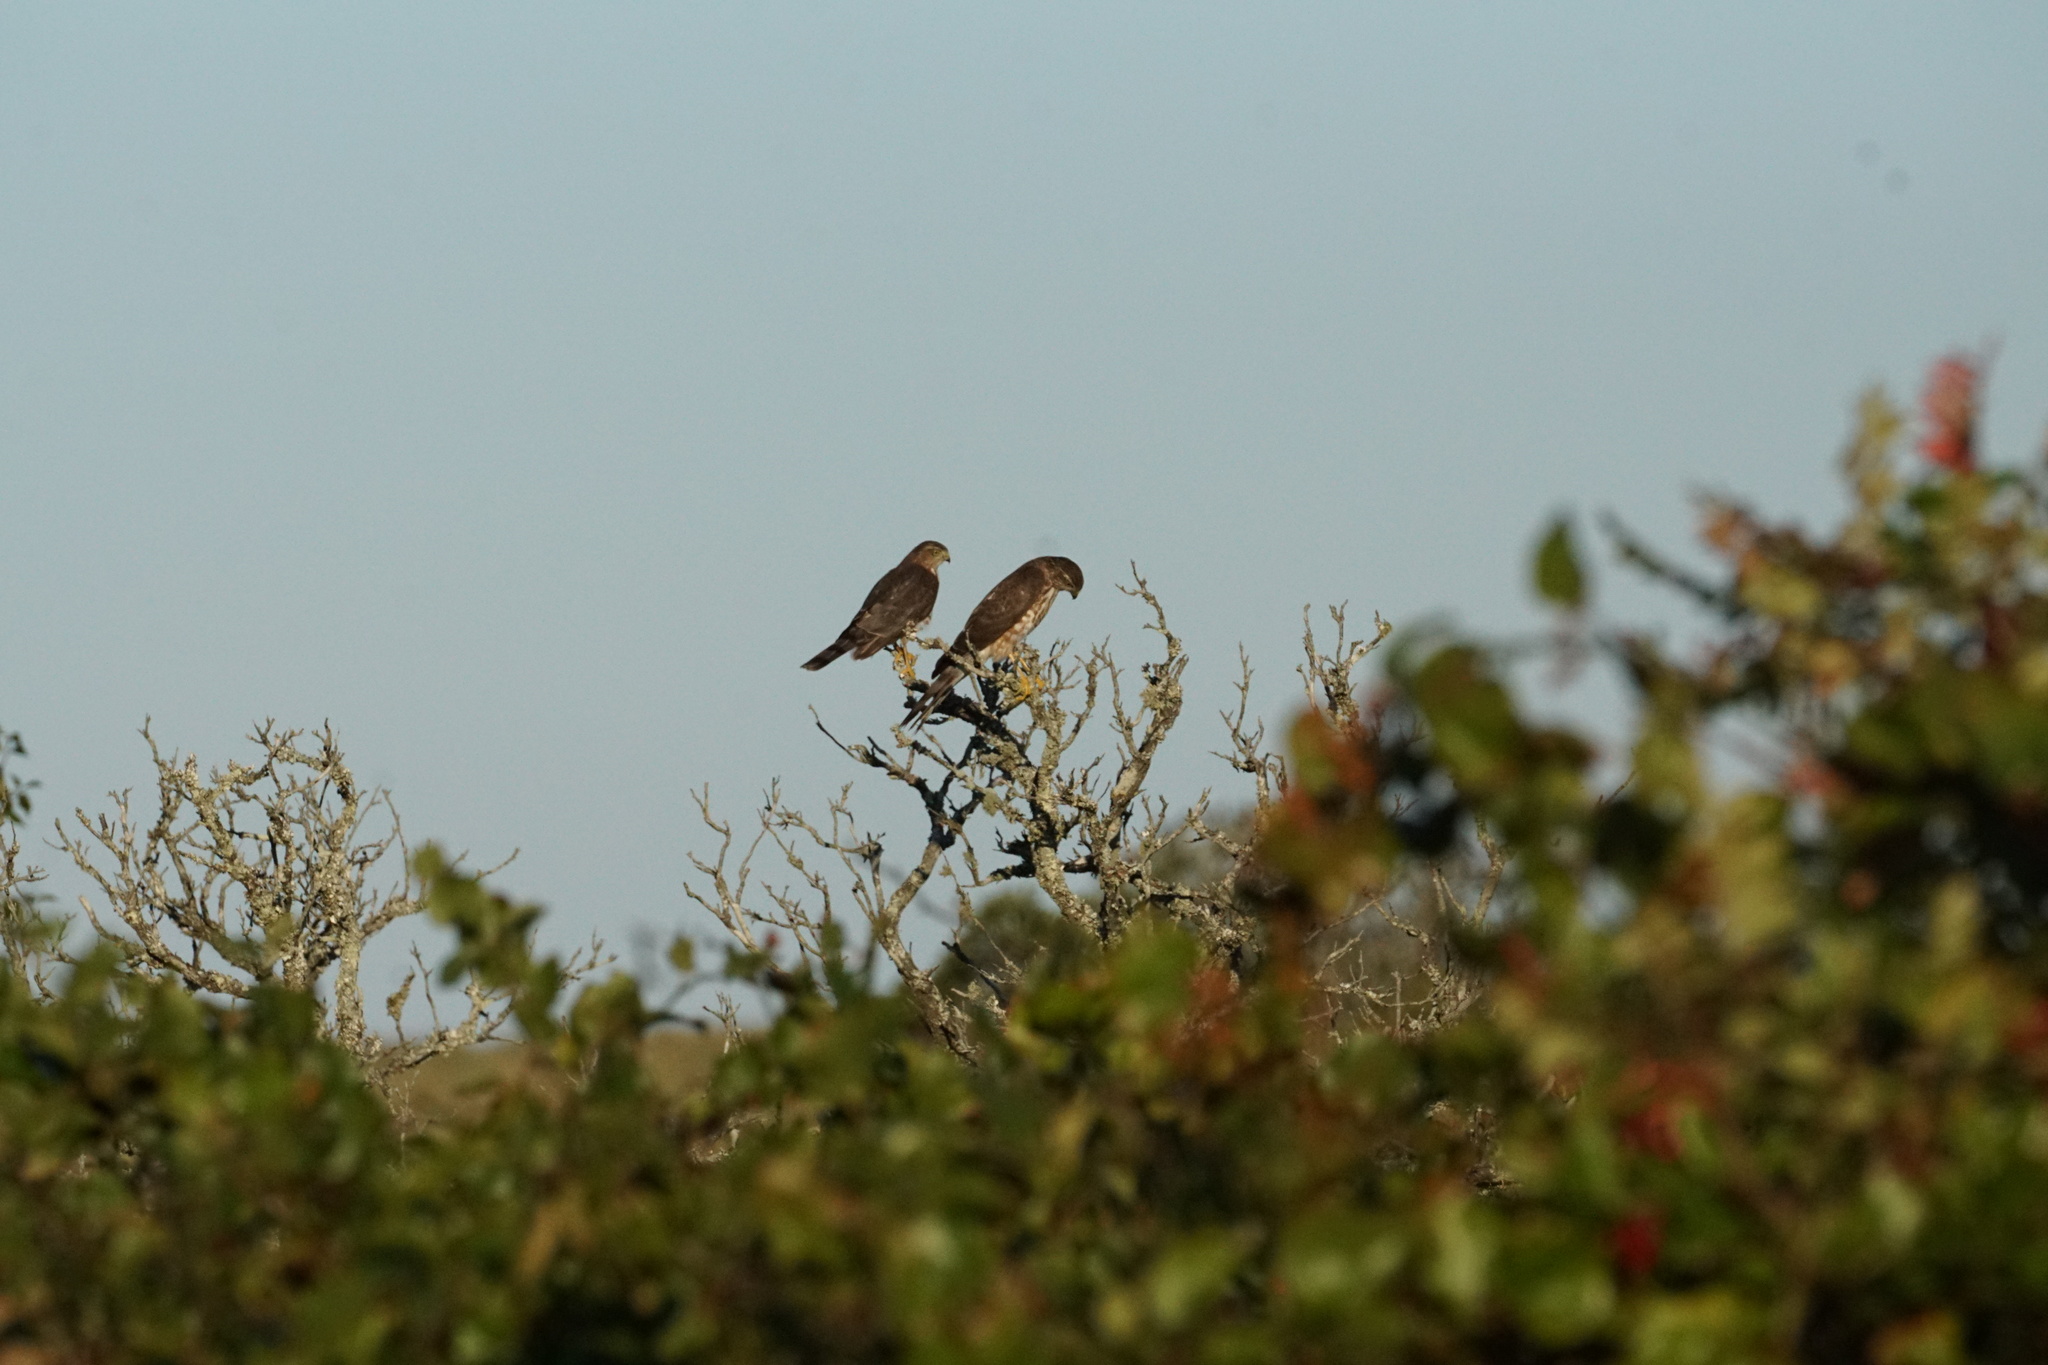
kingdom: Animalia
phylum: Chordata
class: Aves
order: Accipitriformes
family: Accipitridae
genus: Accipiter
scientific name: Accipiter striatus
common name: Sharp-shinned hawk
